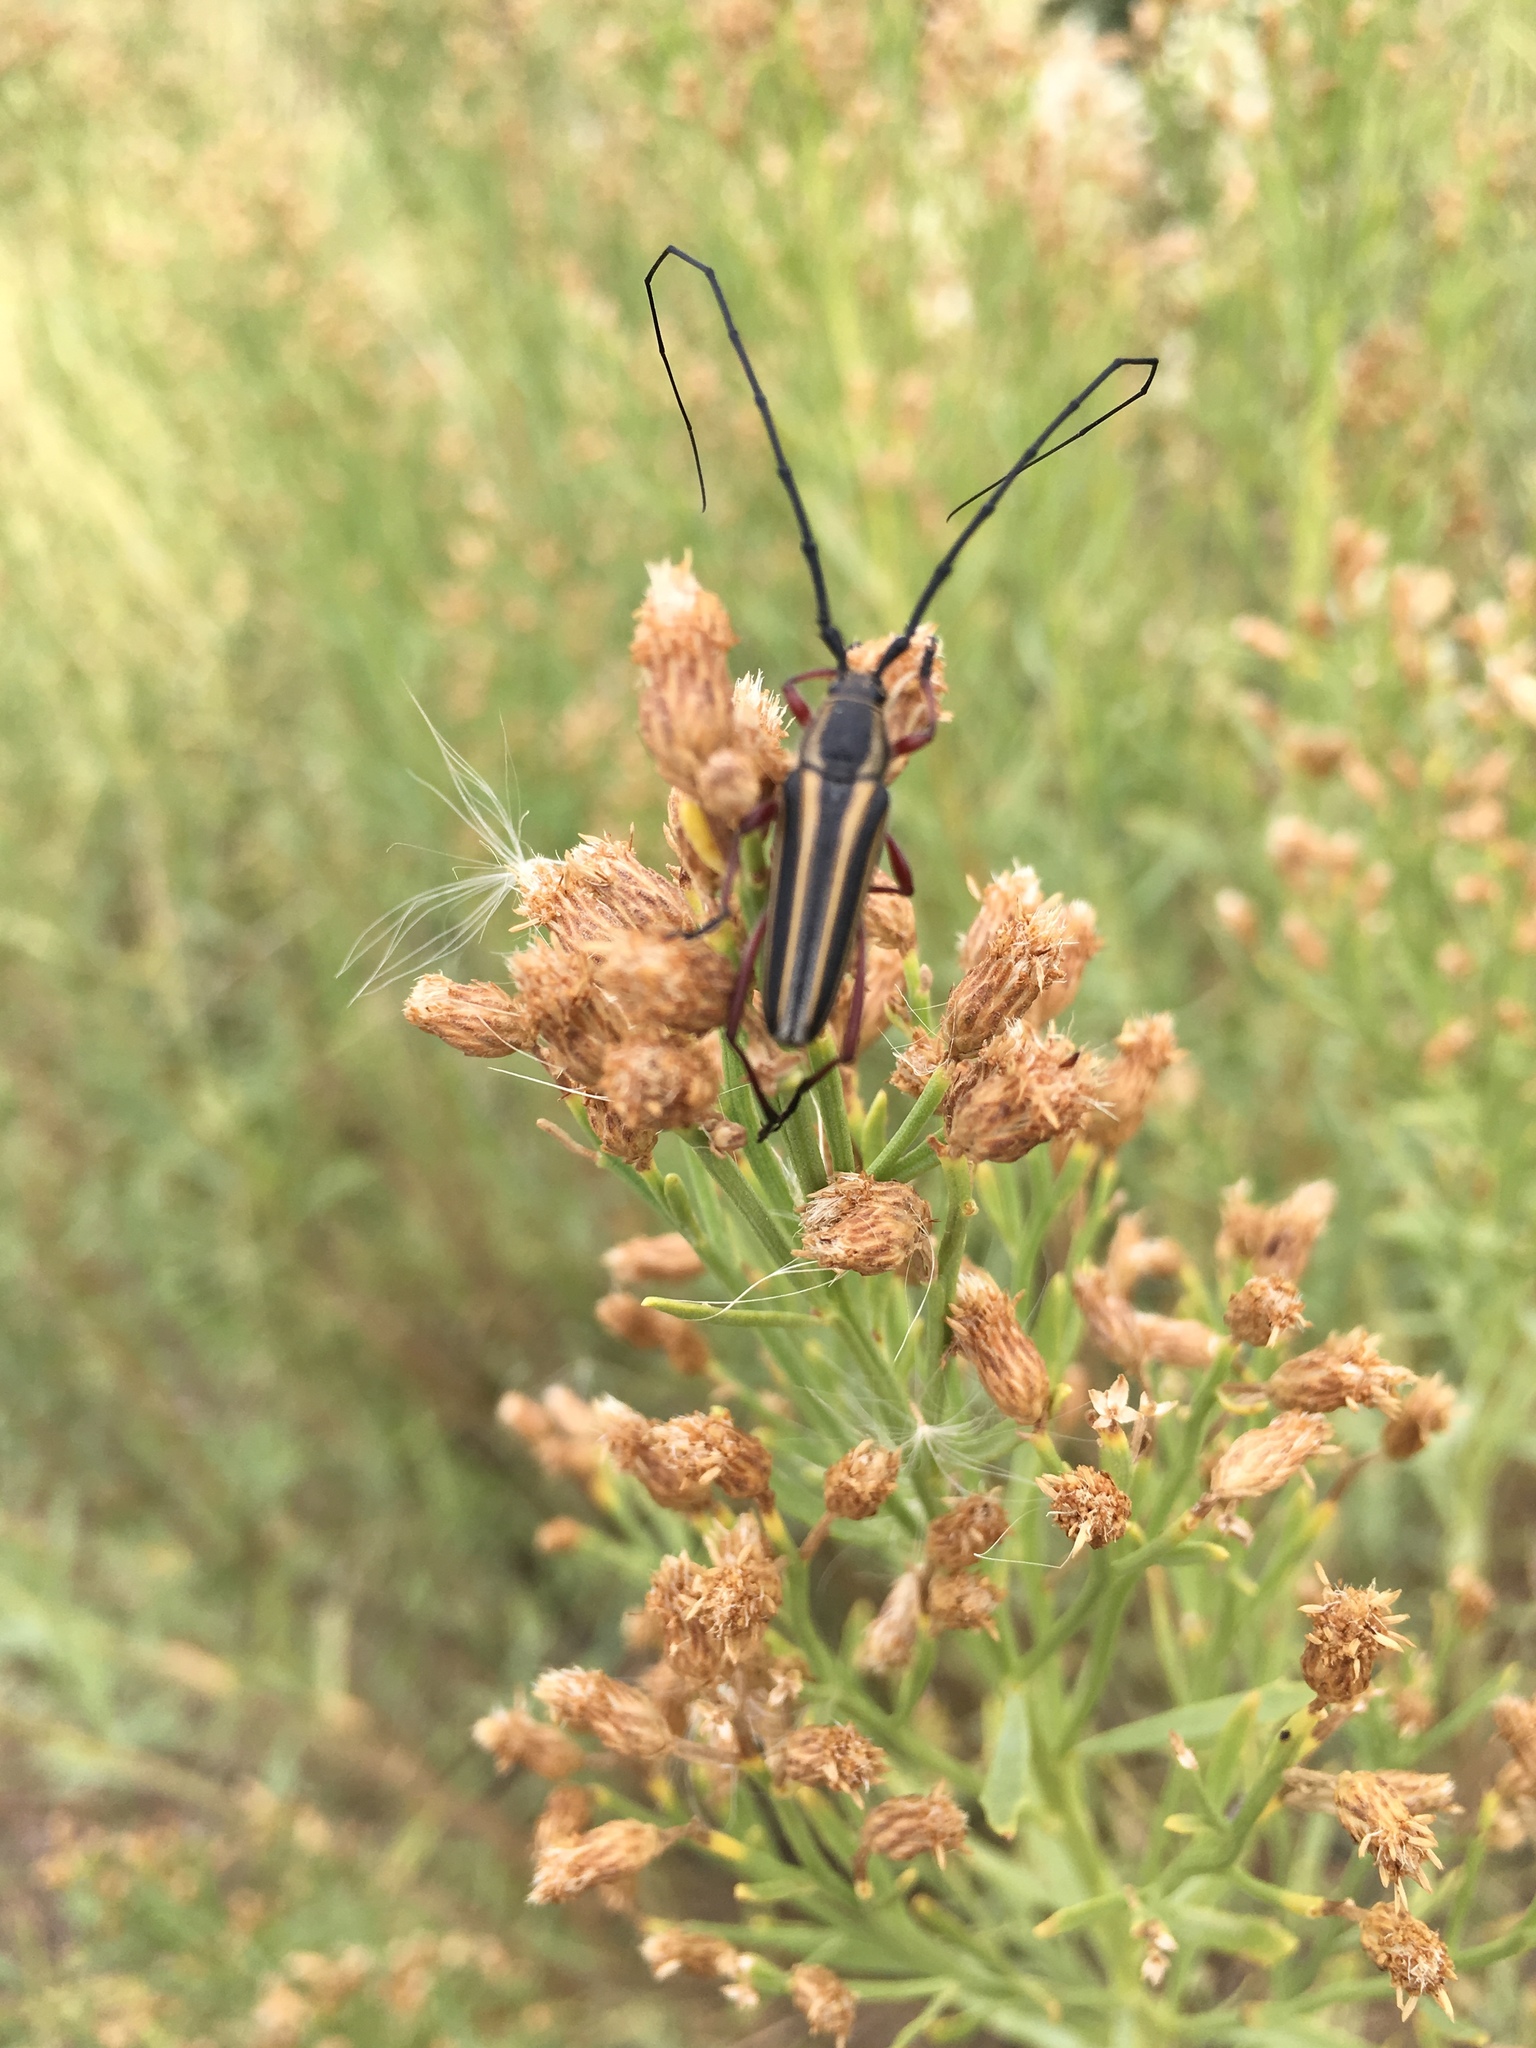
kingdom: Animalia
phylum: Arthropoda
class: Insecta
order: Coleoptera
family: Cerambycidae
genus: Sphaenothecus
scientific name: Sphaenothecus bilineatus
